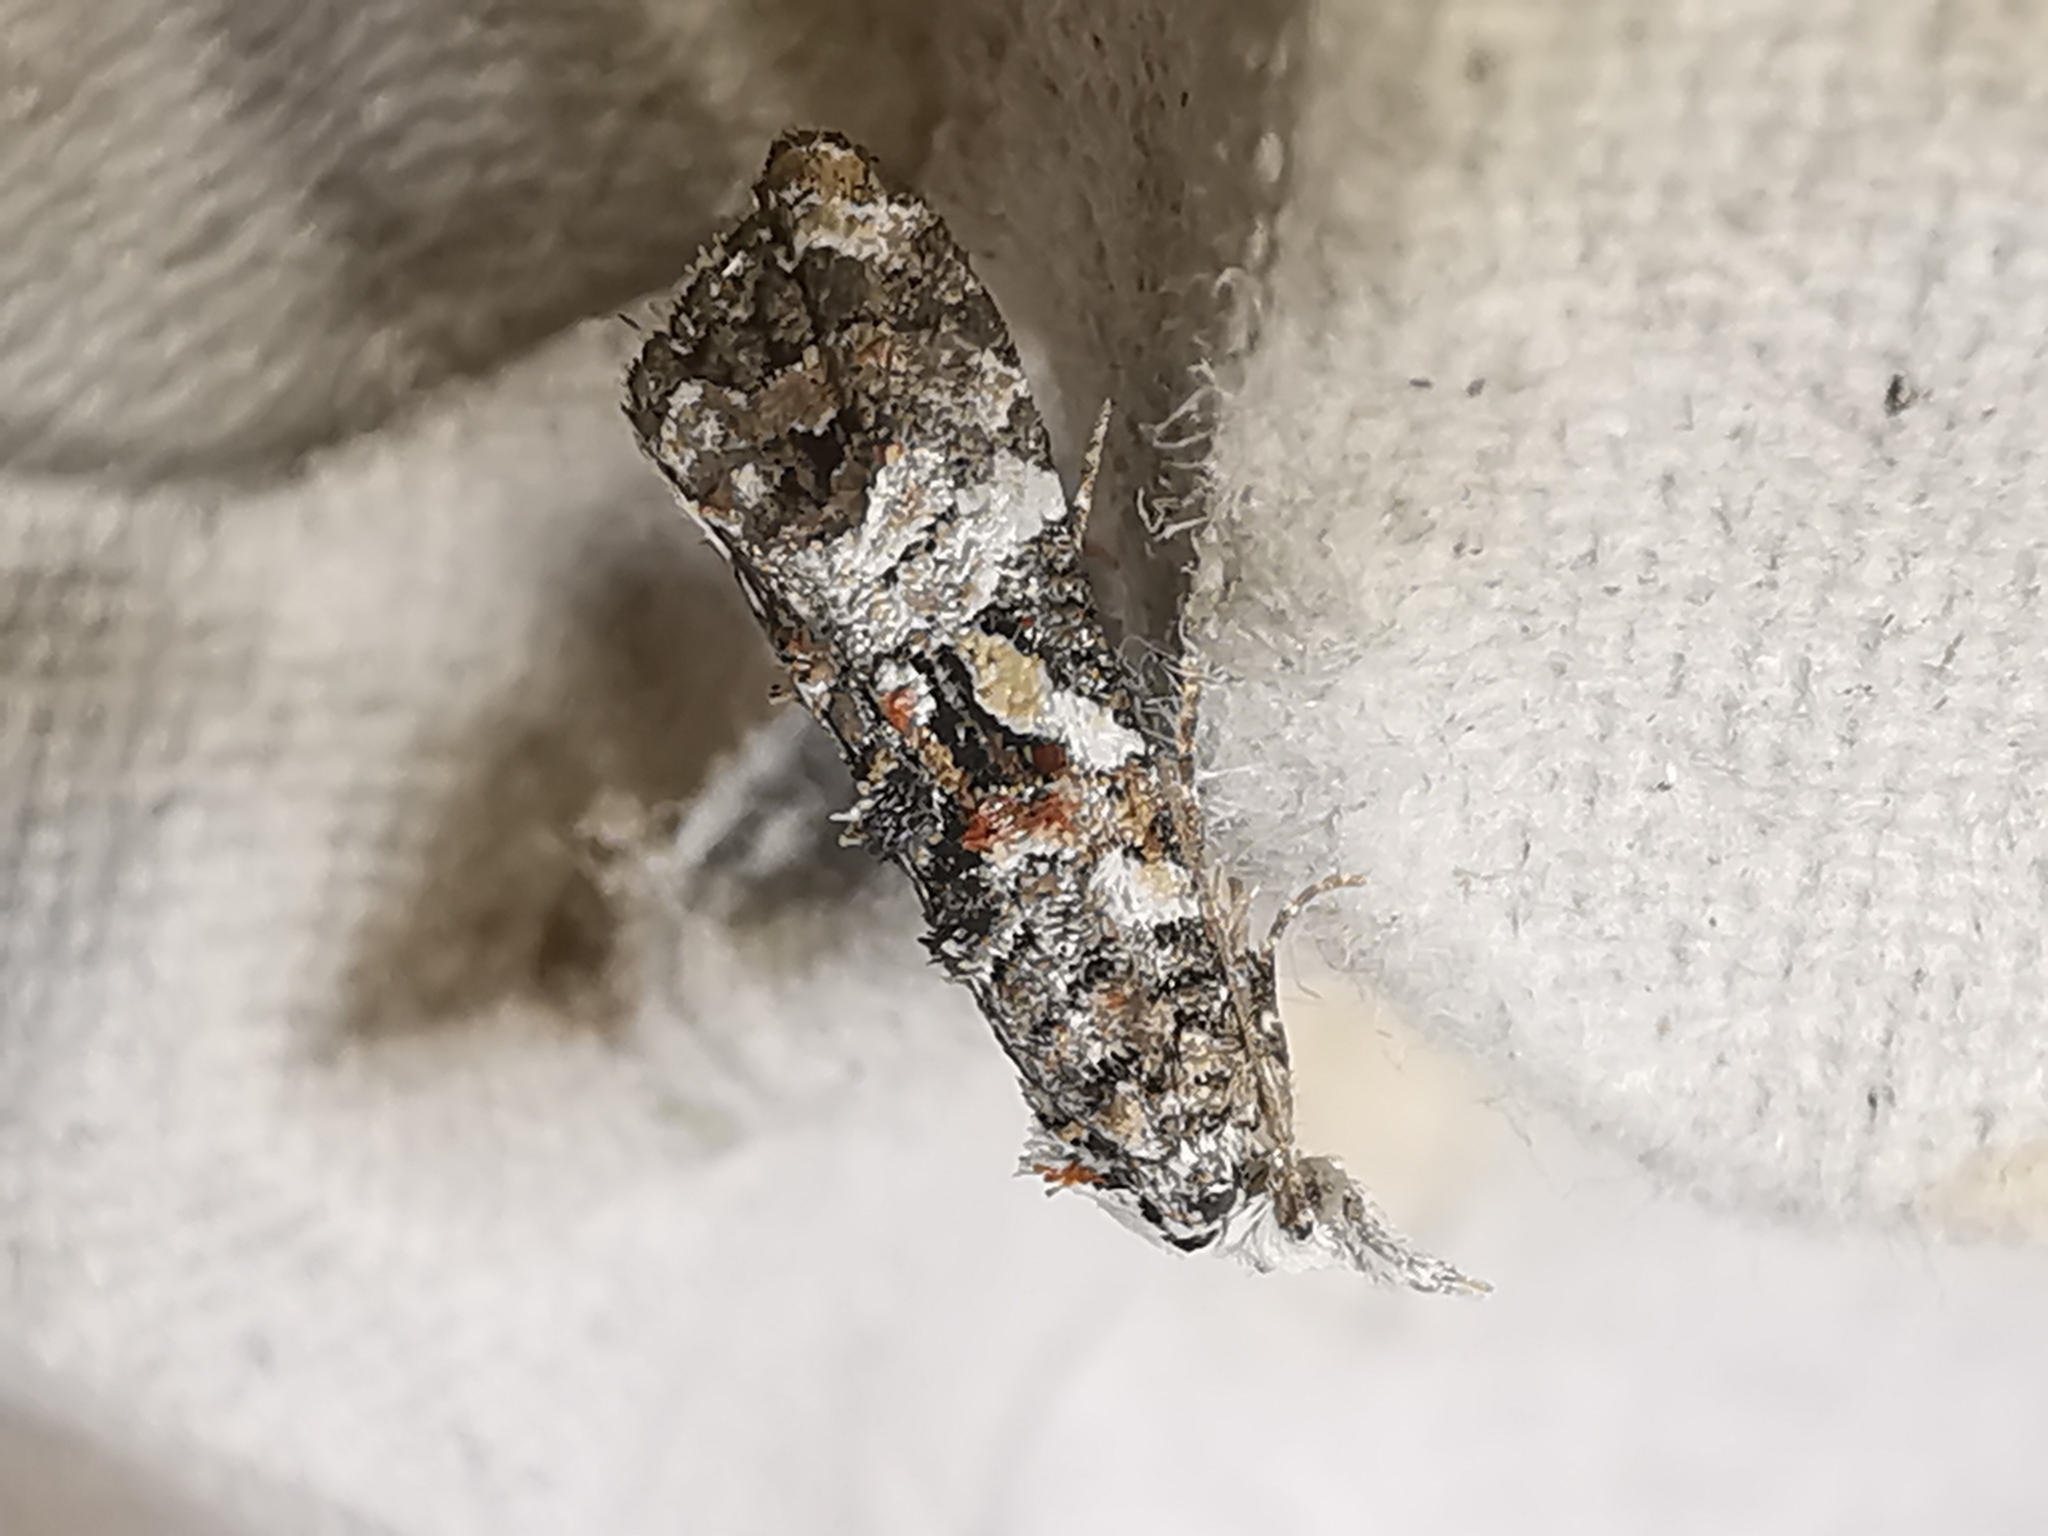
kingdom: Animalia
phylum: Arthropoda
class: Insecta
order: Lepidoptera
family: Tortricidae
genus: Phtheochroa
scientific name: Phtheochroa rugosana
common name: Rough-winged conch
